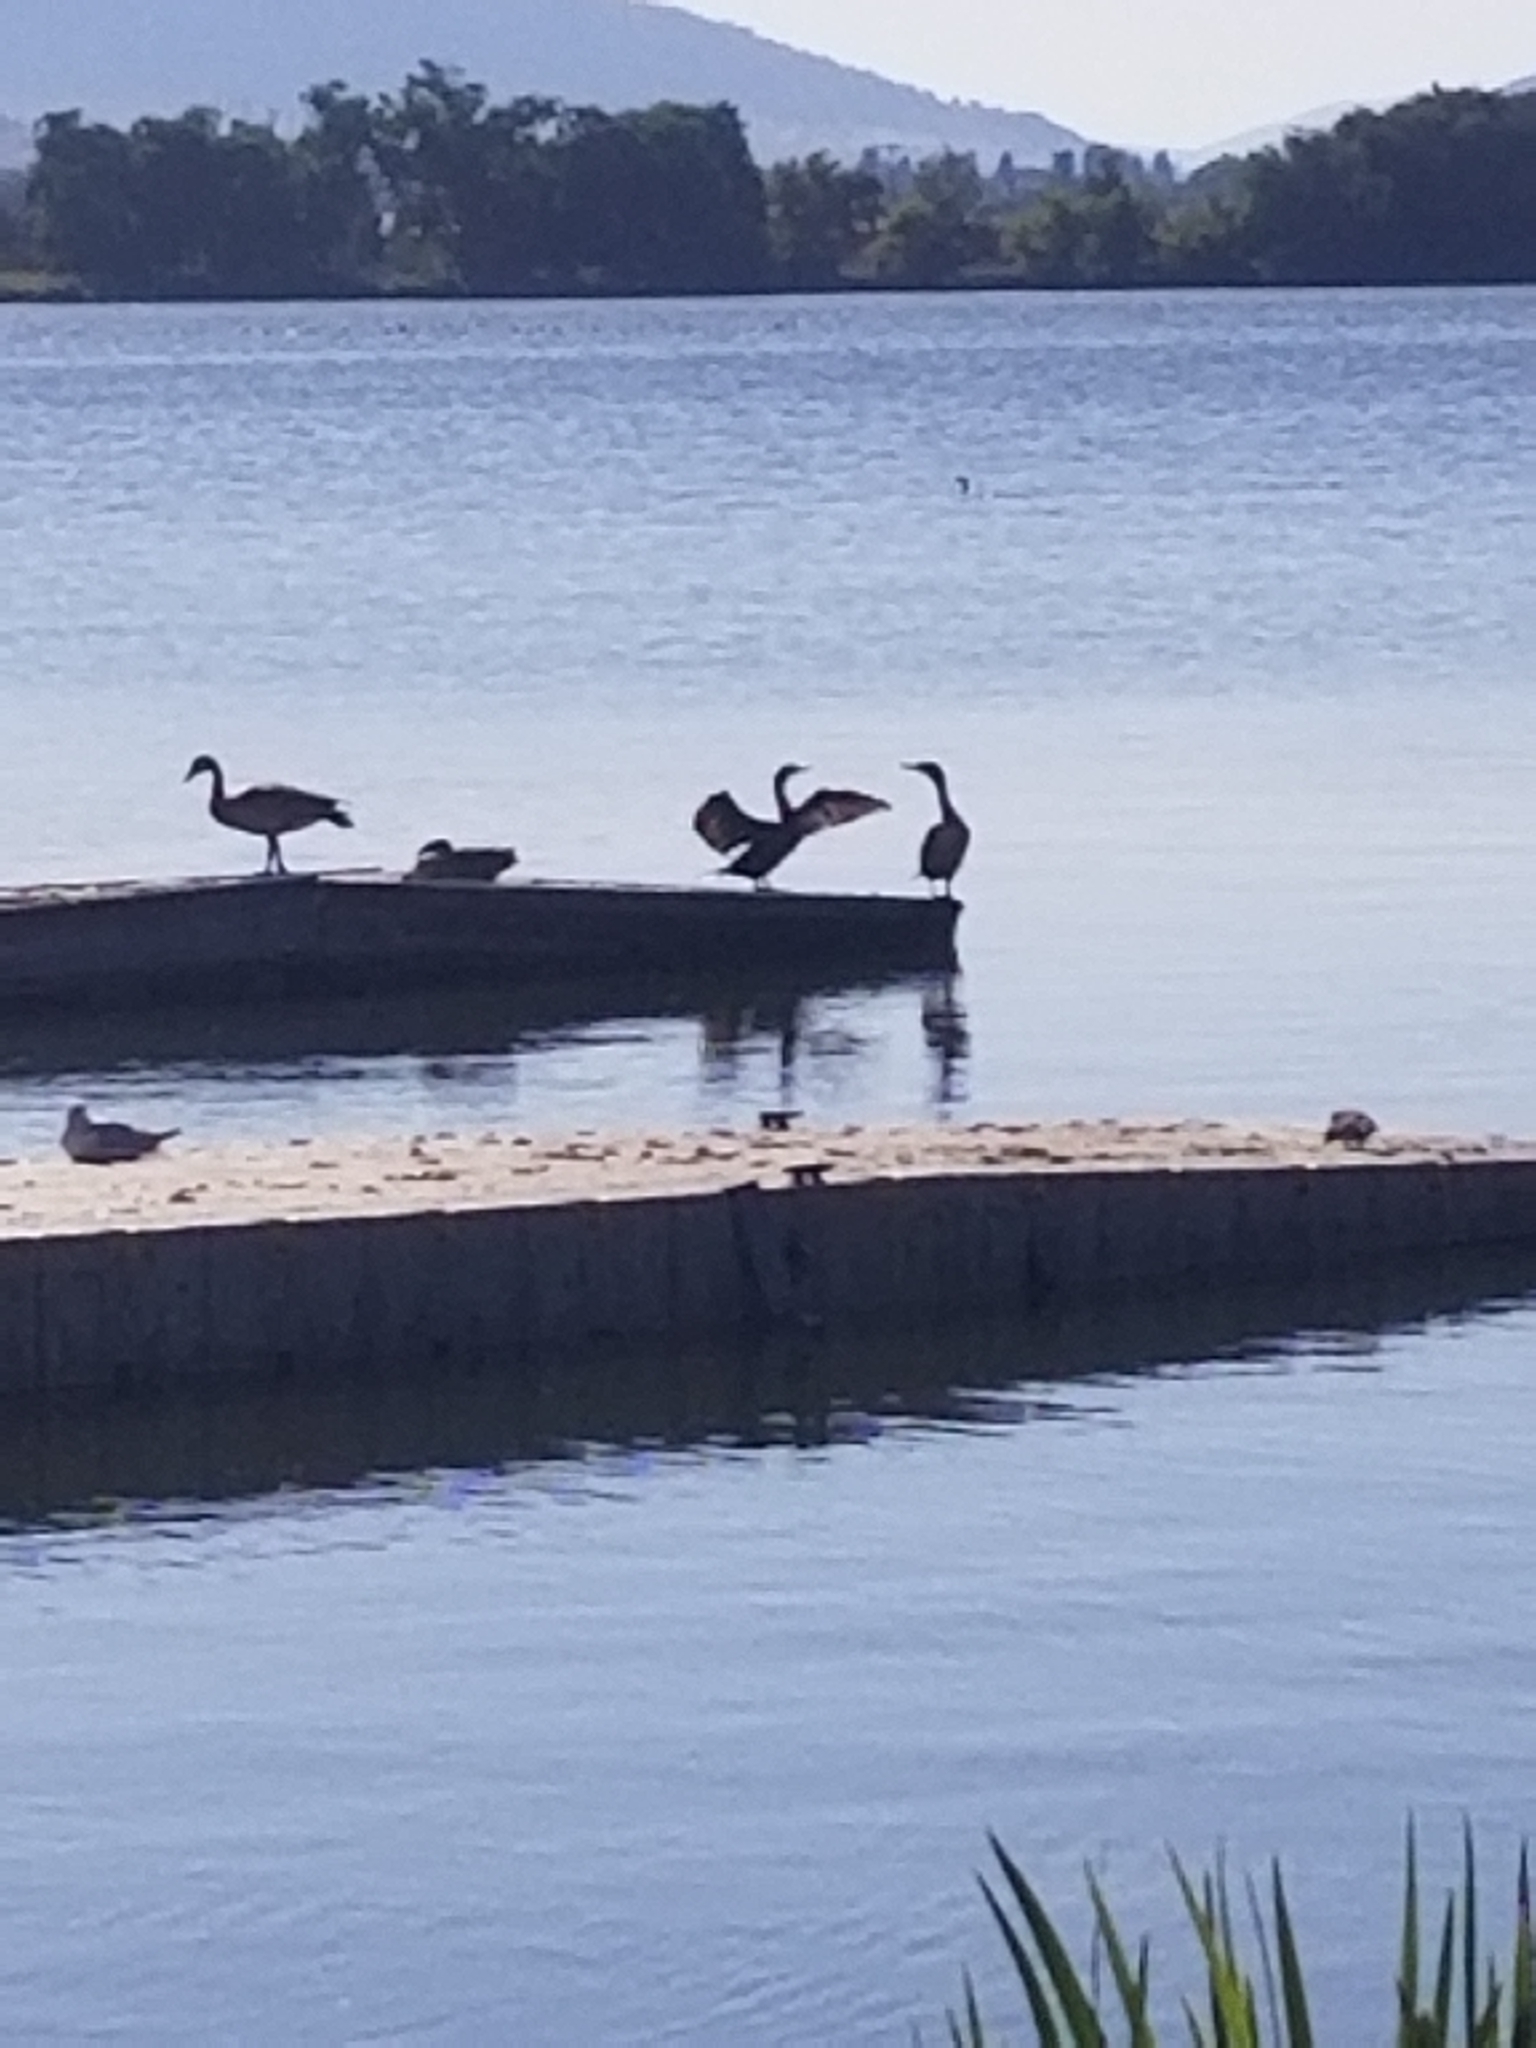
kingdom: Animalia
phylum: Chordata
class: Aves
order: Suliformes
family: Phalacrocoracidae
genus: Phalacrocorax
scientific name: Phalacrocorax auritus
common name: Double-crested cormorant
